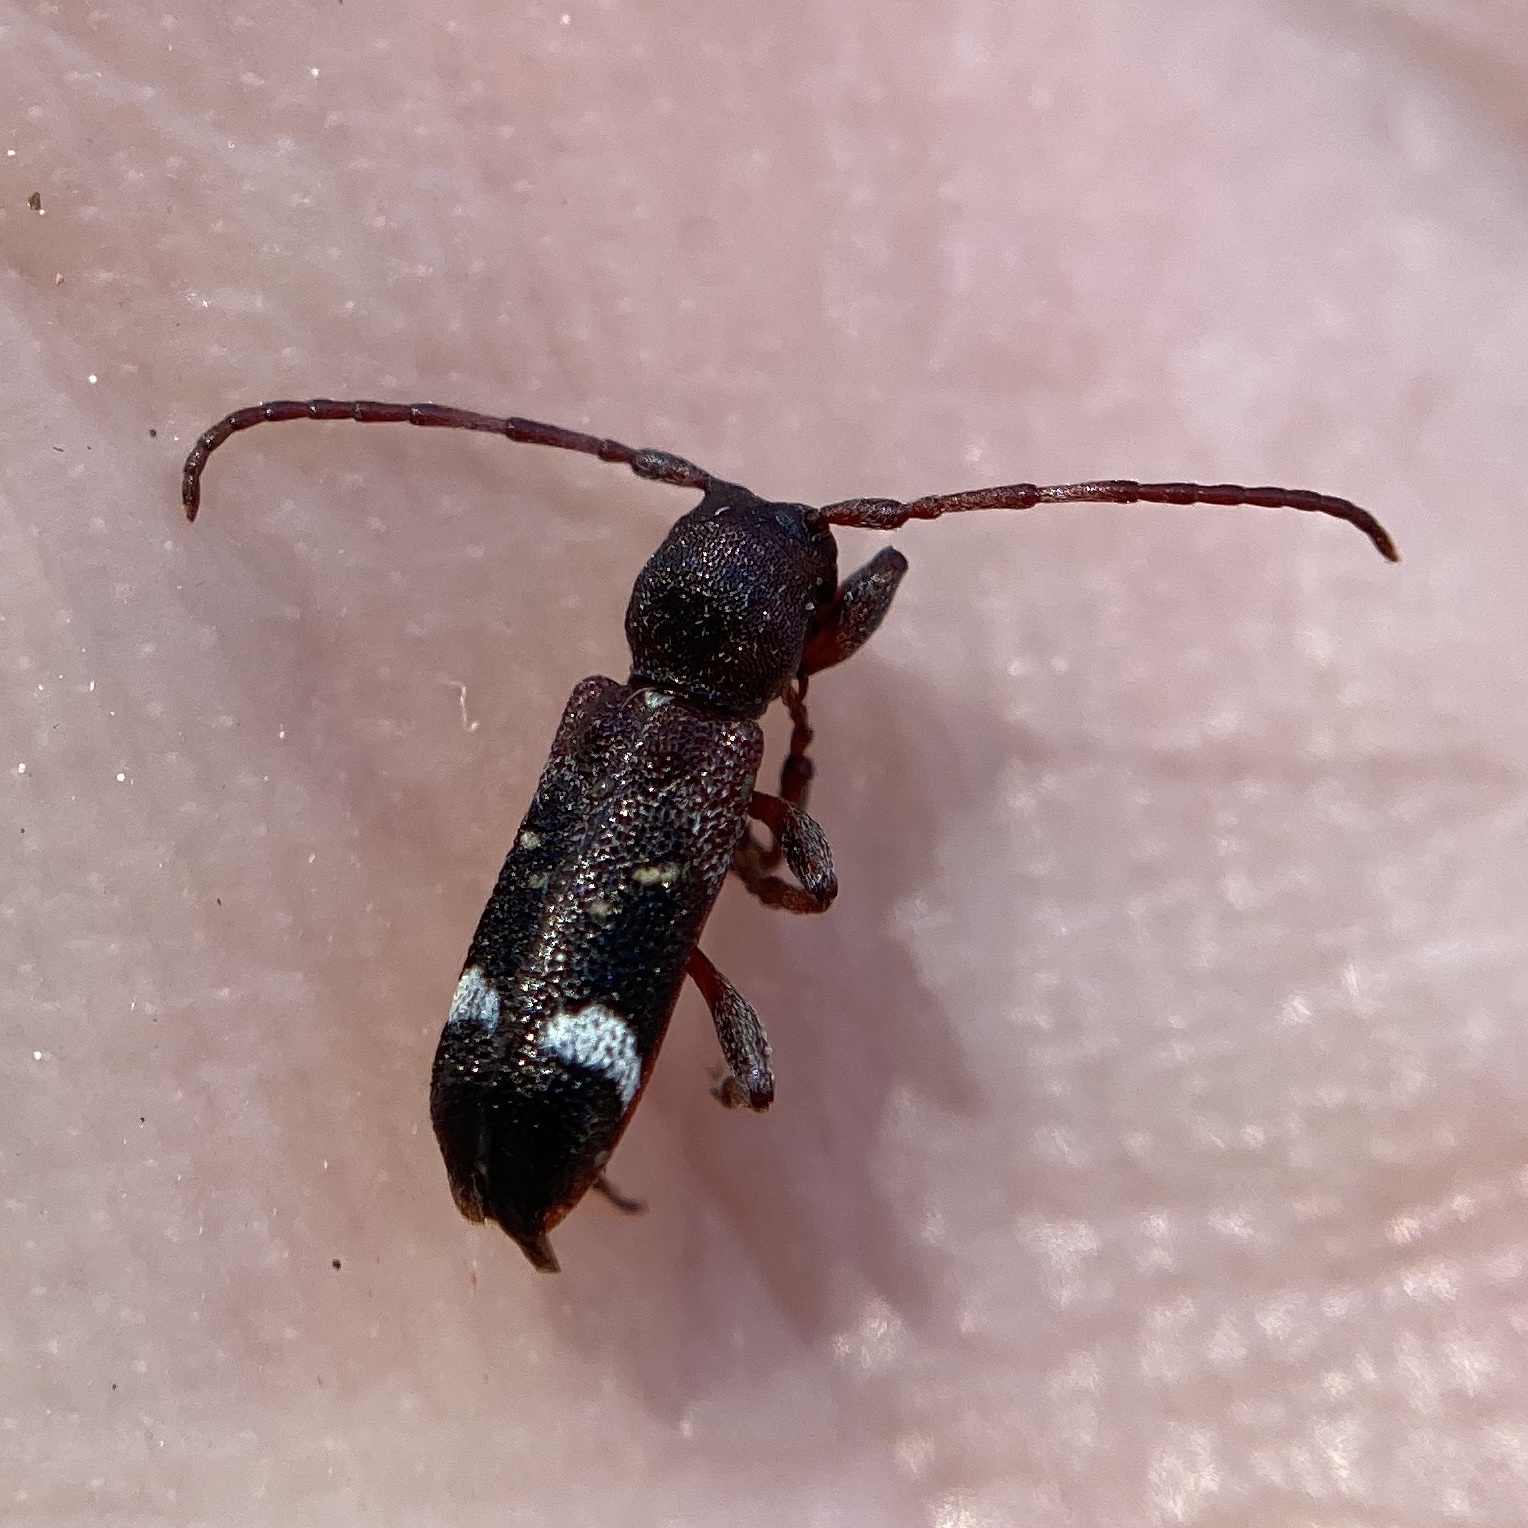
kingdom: Animalia
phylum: Arthropoda
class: Insecta
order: Coleoptera
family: Cerambycidae
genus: Psenocerus
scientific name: Psenocerus supernotatus
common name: Currant-tip borer
